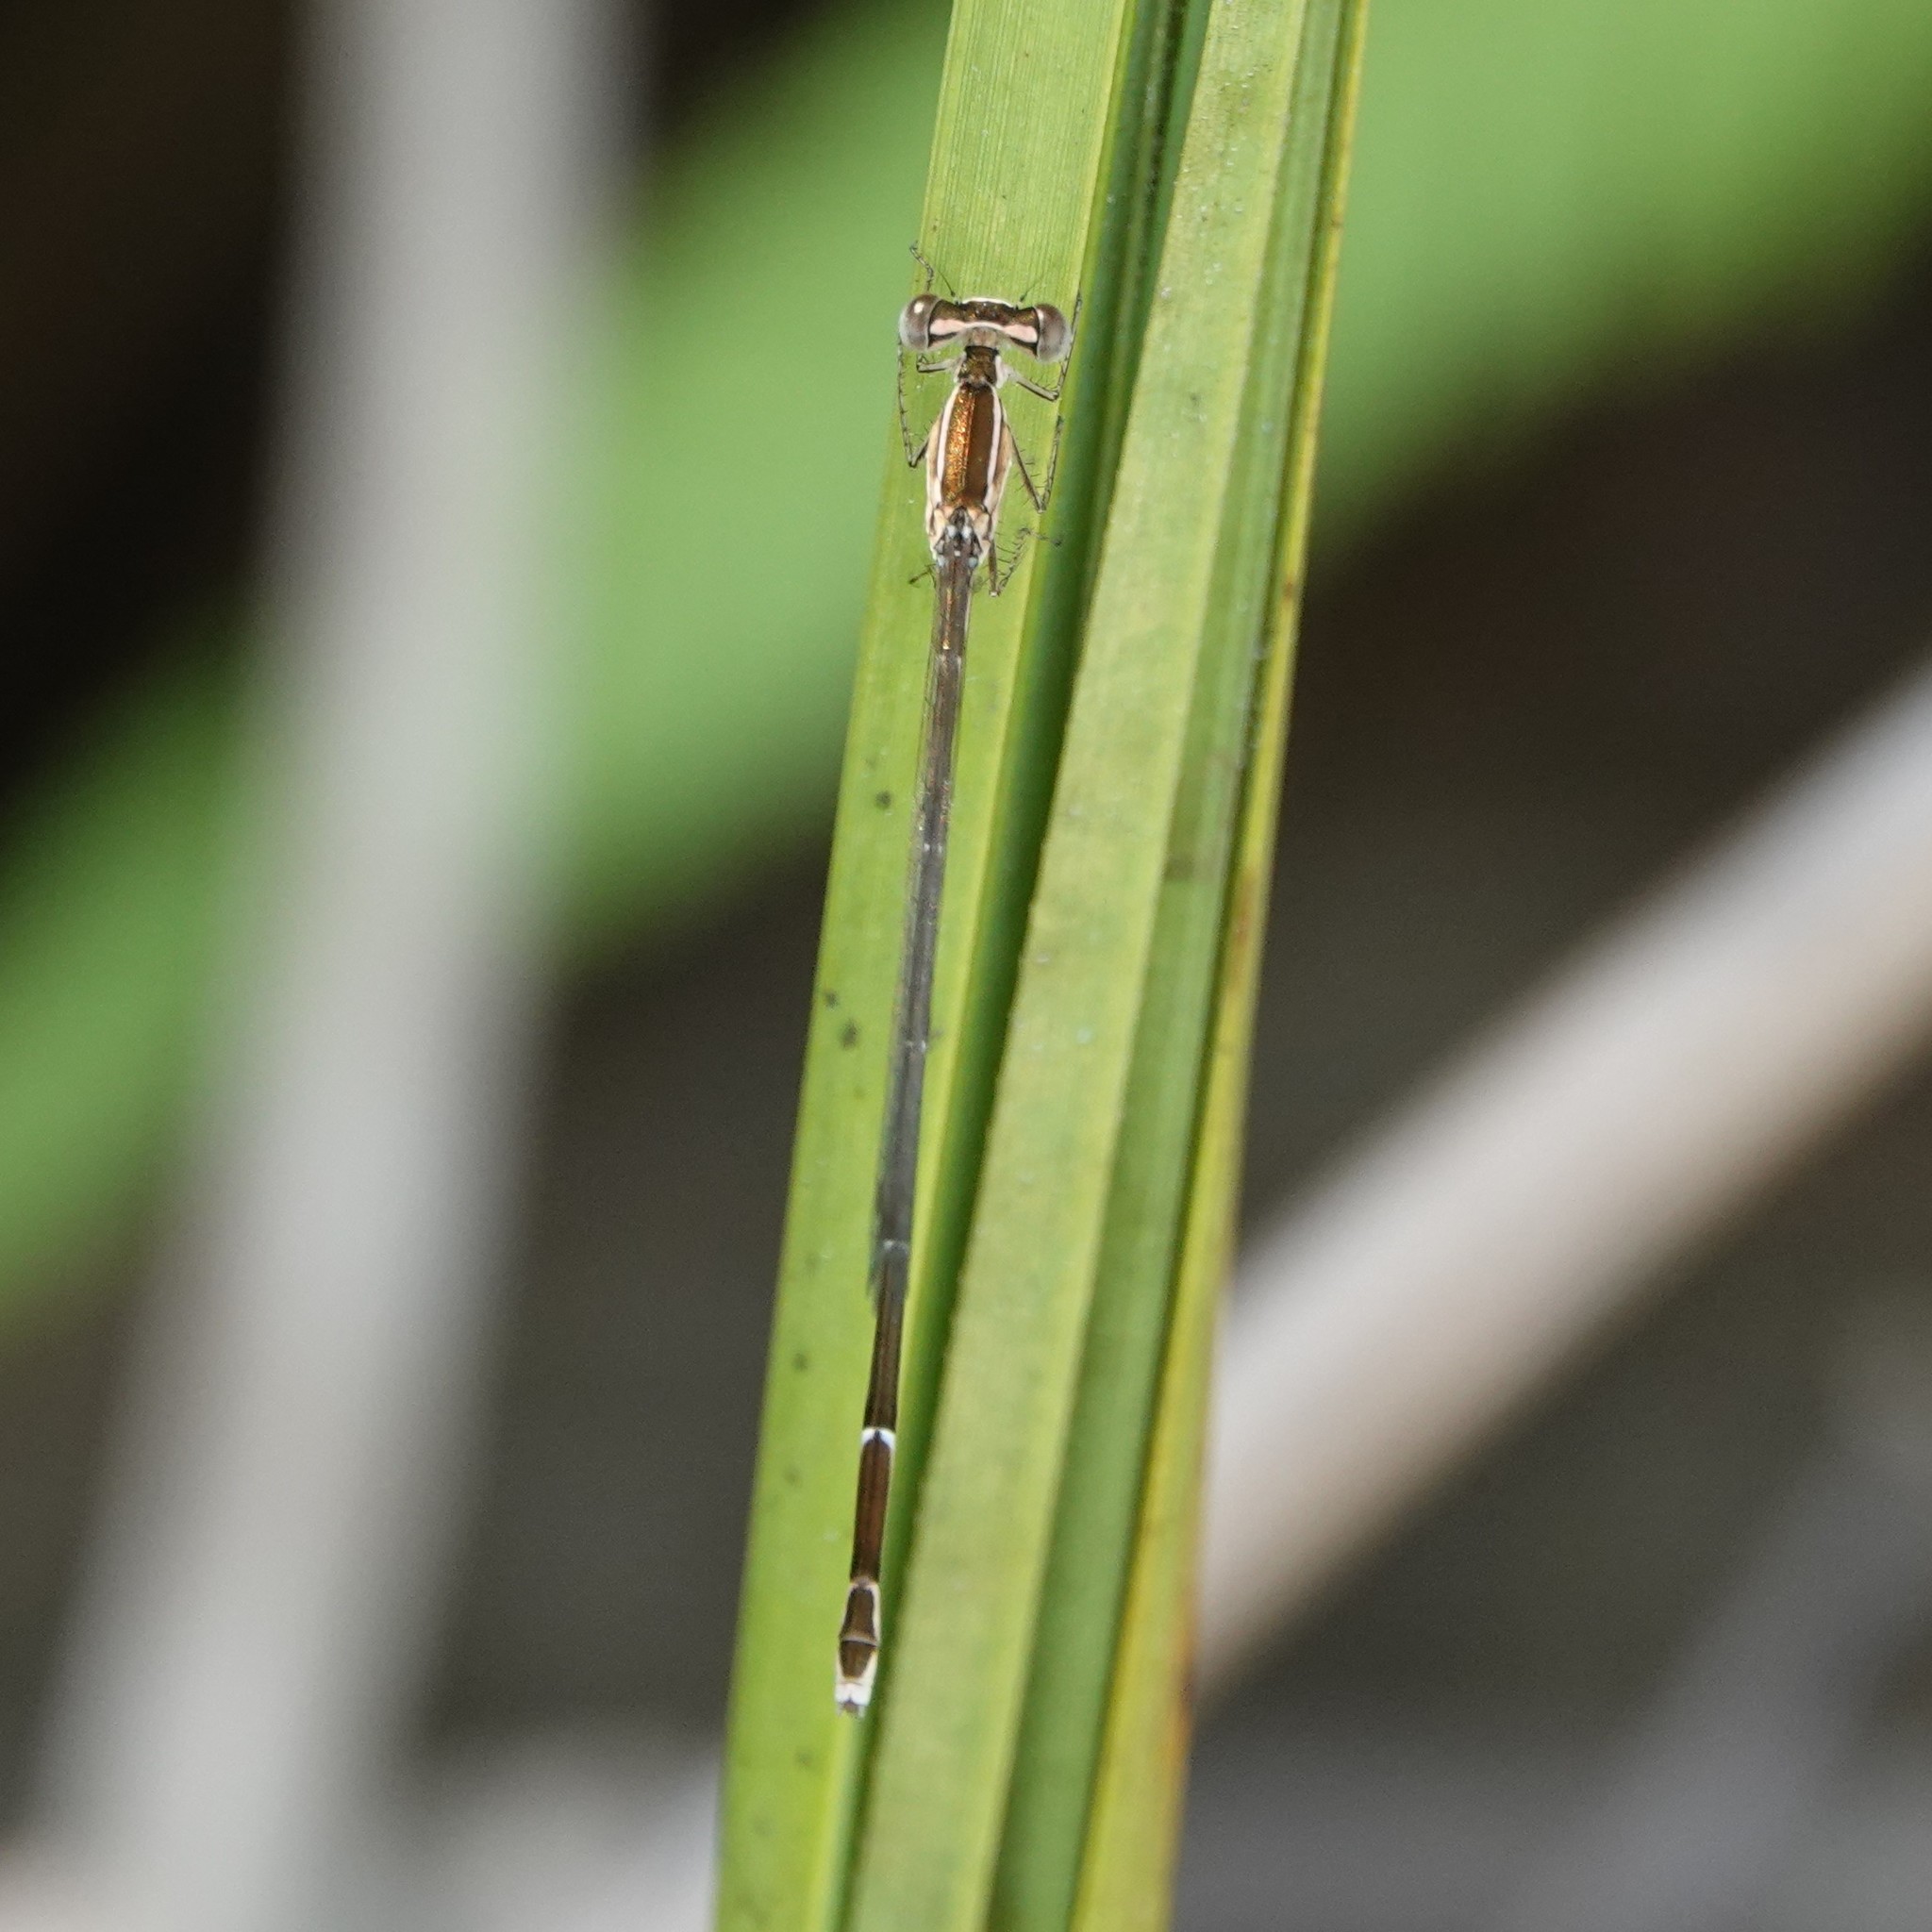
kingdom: Animalia
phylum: Arthropoda
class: Insecta
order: Odonata
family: Coenagrionidae
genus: Nehalennia
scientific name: Nehalennia pallidula
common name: Everglades sprite
